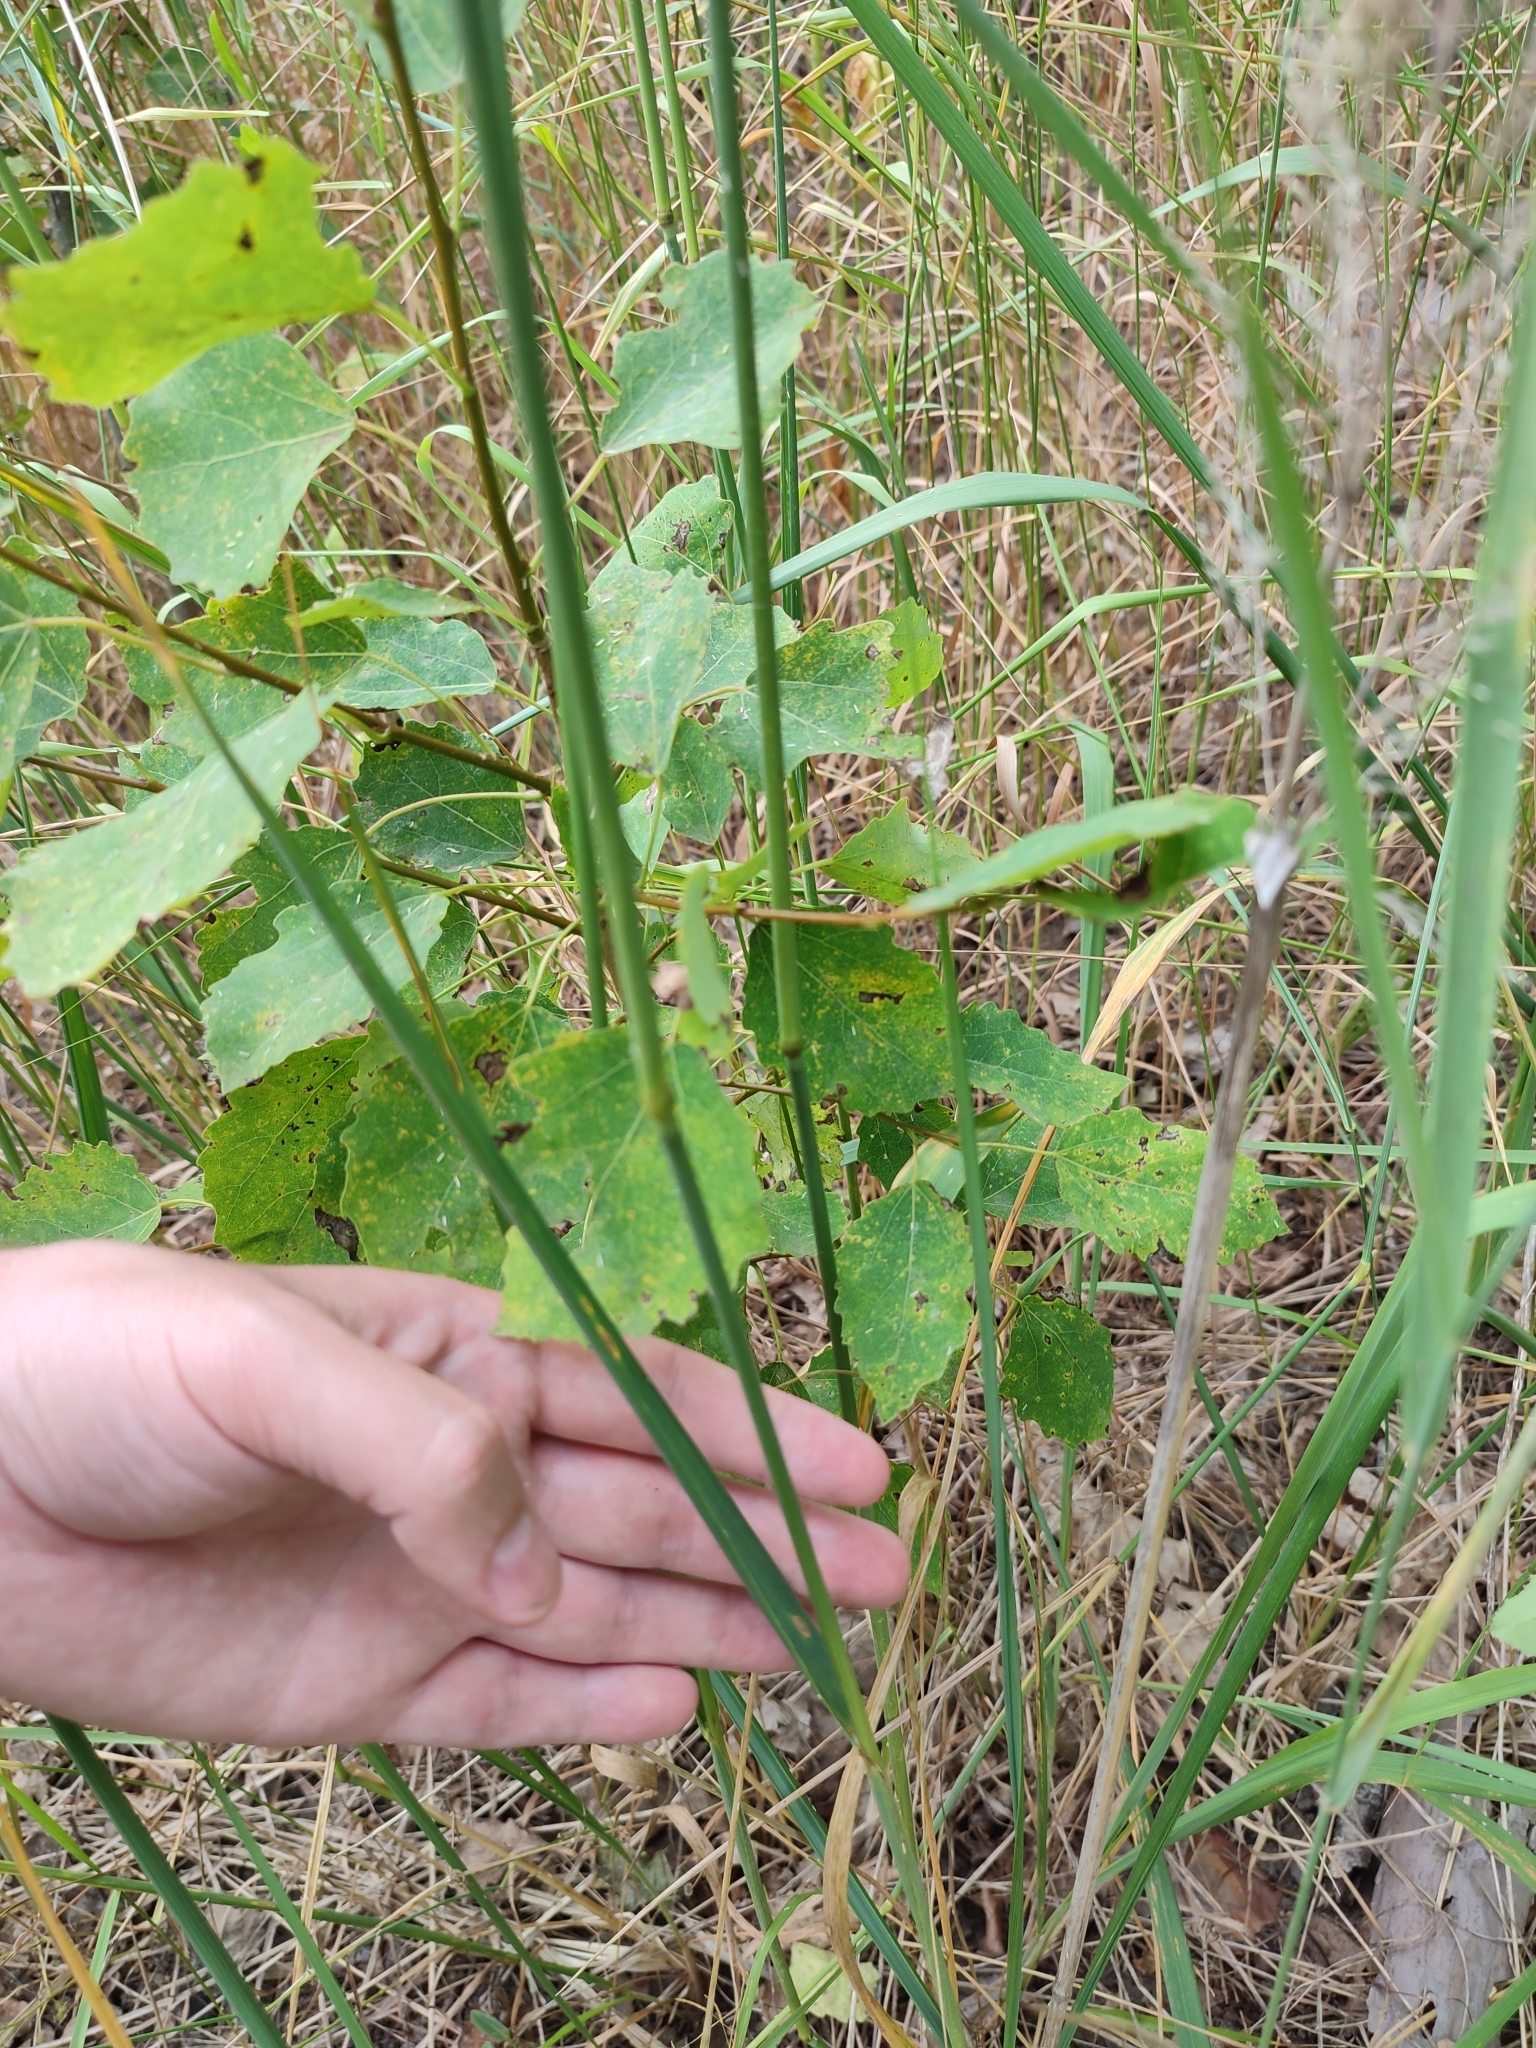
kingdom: Plantae
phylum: Tracheophyta
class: Liliopsida
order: Poales
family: Poaceae
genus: Calamagrostis
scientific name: Calamagrostis epigejos
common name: Wood small-reed
